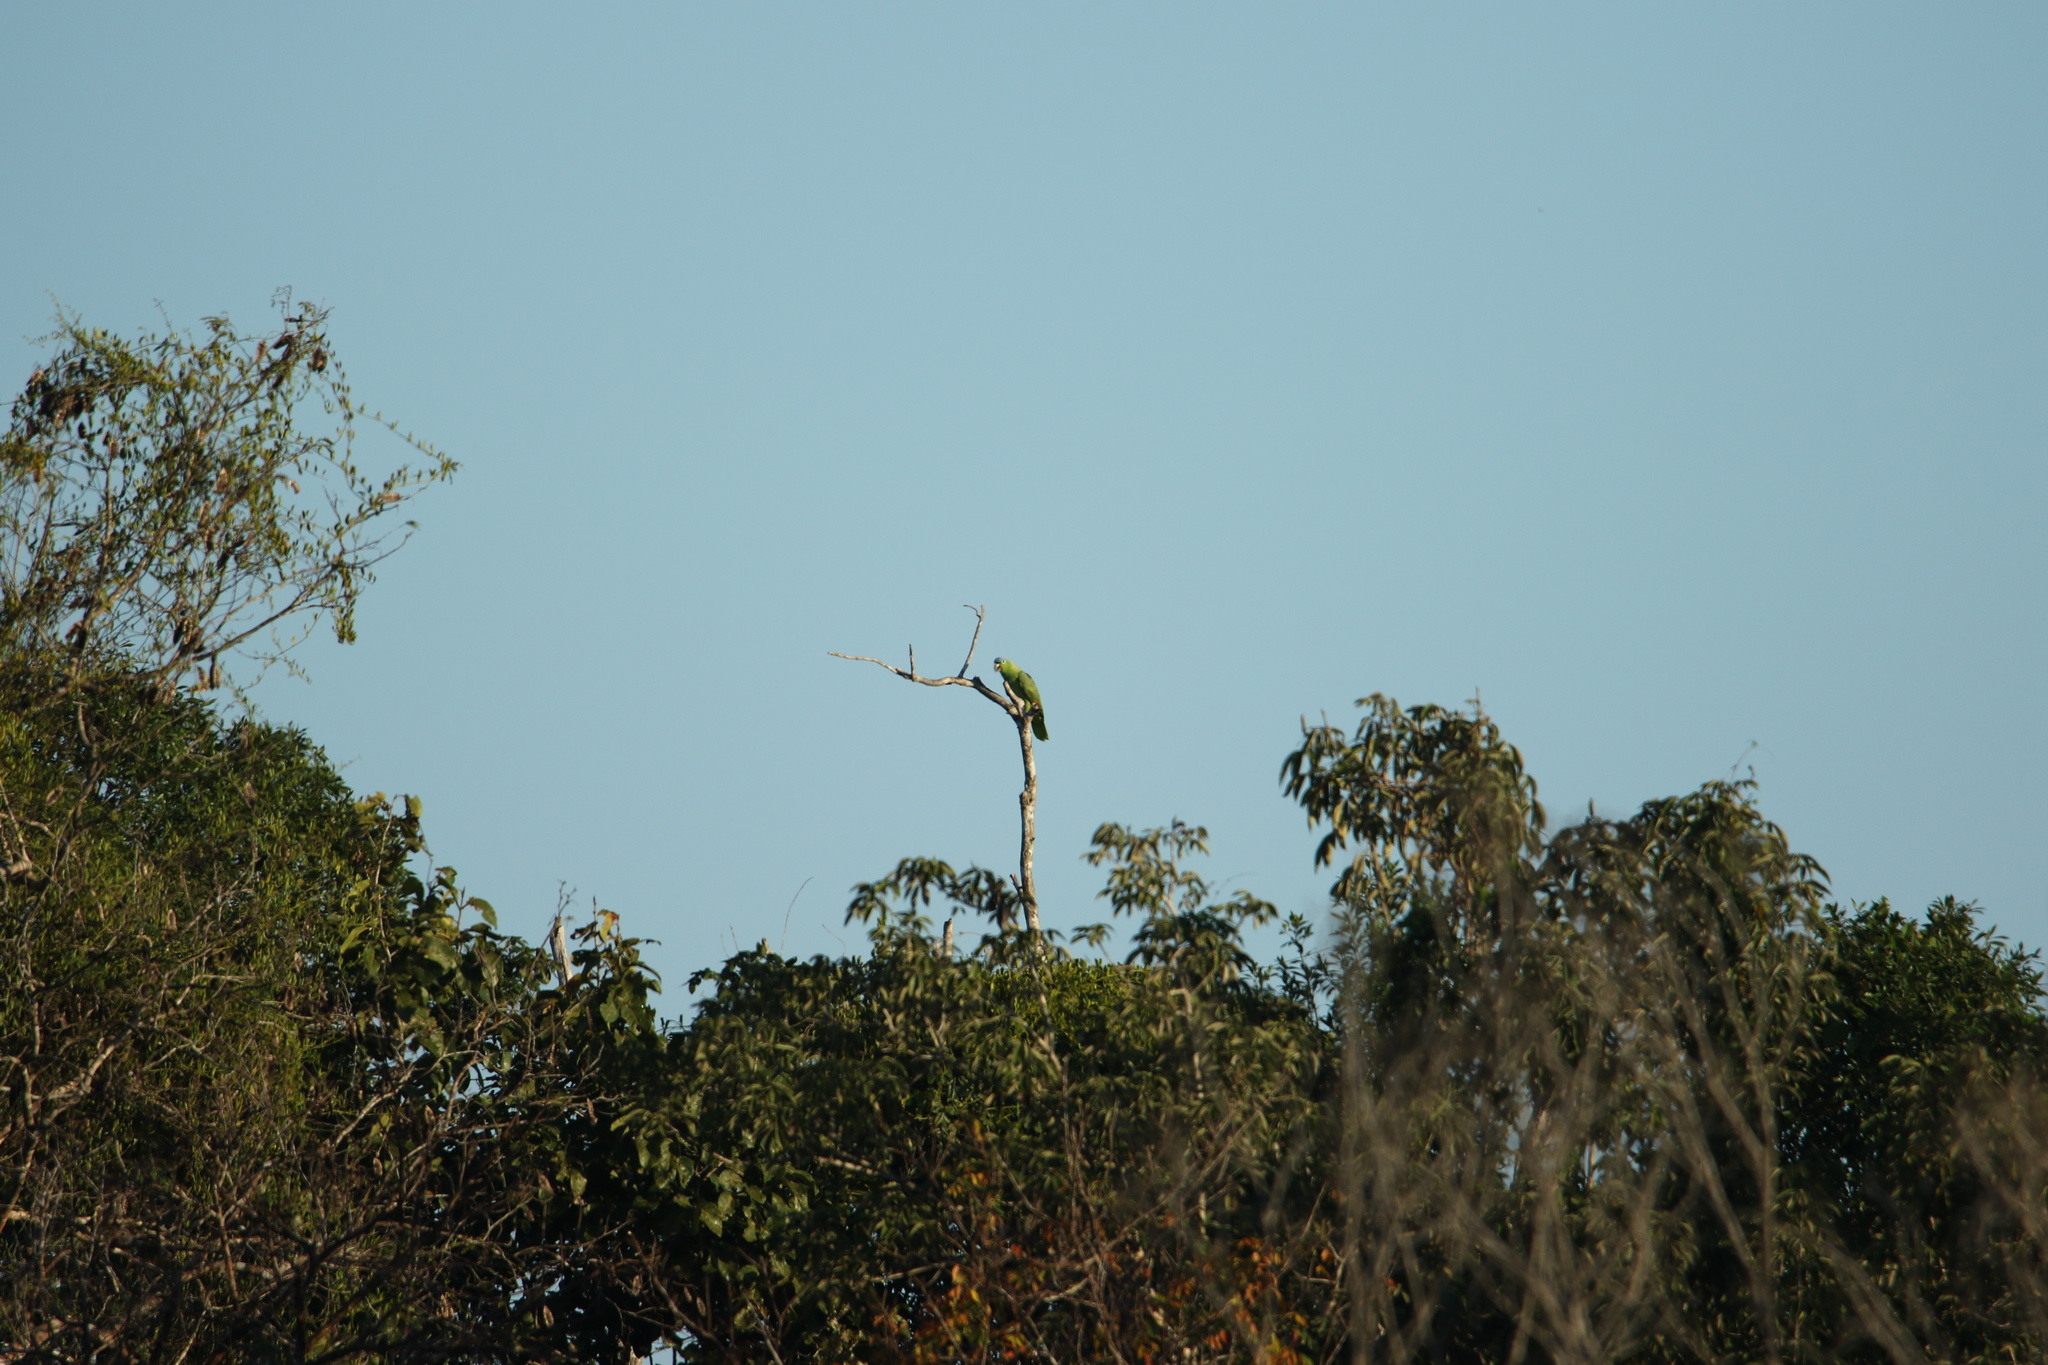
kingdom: Animalia
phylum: Chordata
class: Aves
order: Psittaciformes
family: Psittacidae
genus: Amazona
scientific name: Amazona farinosa
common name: Mealy parrot
